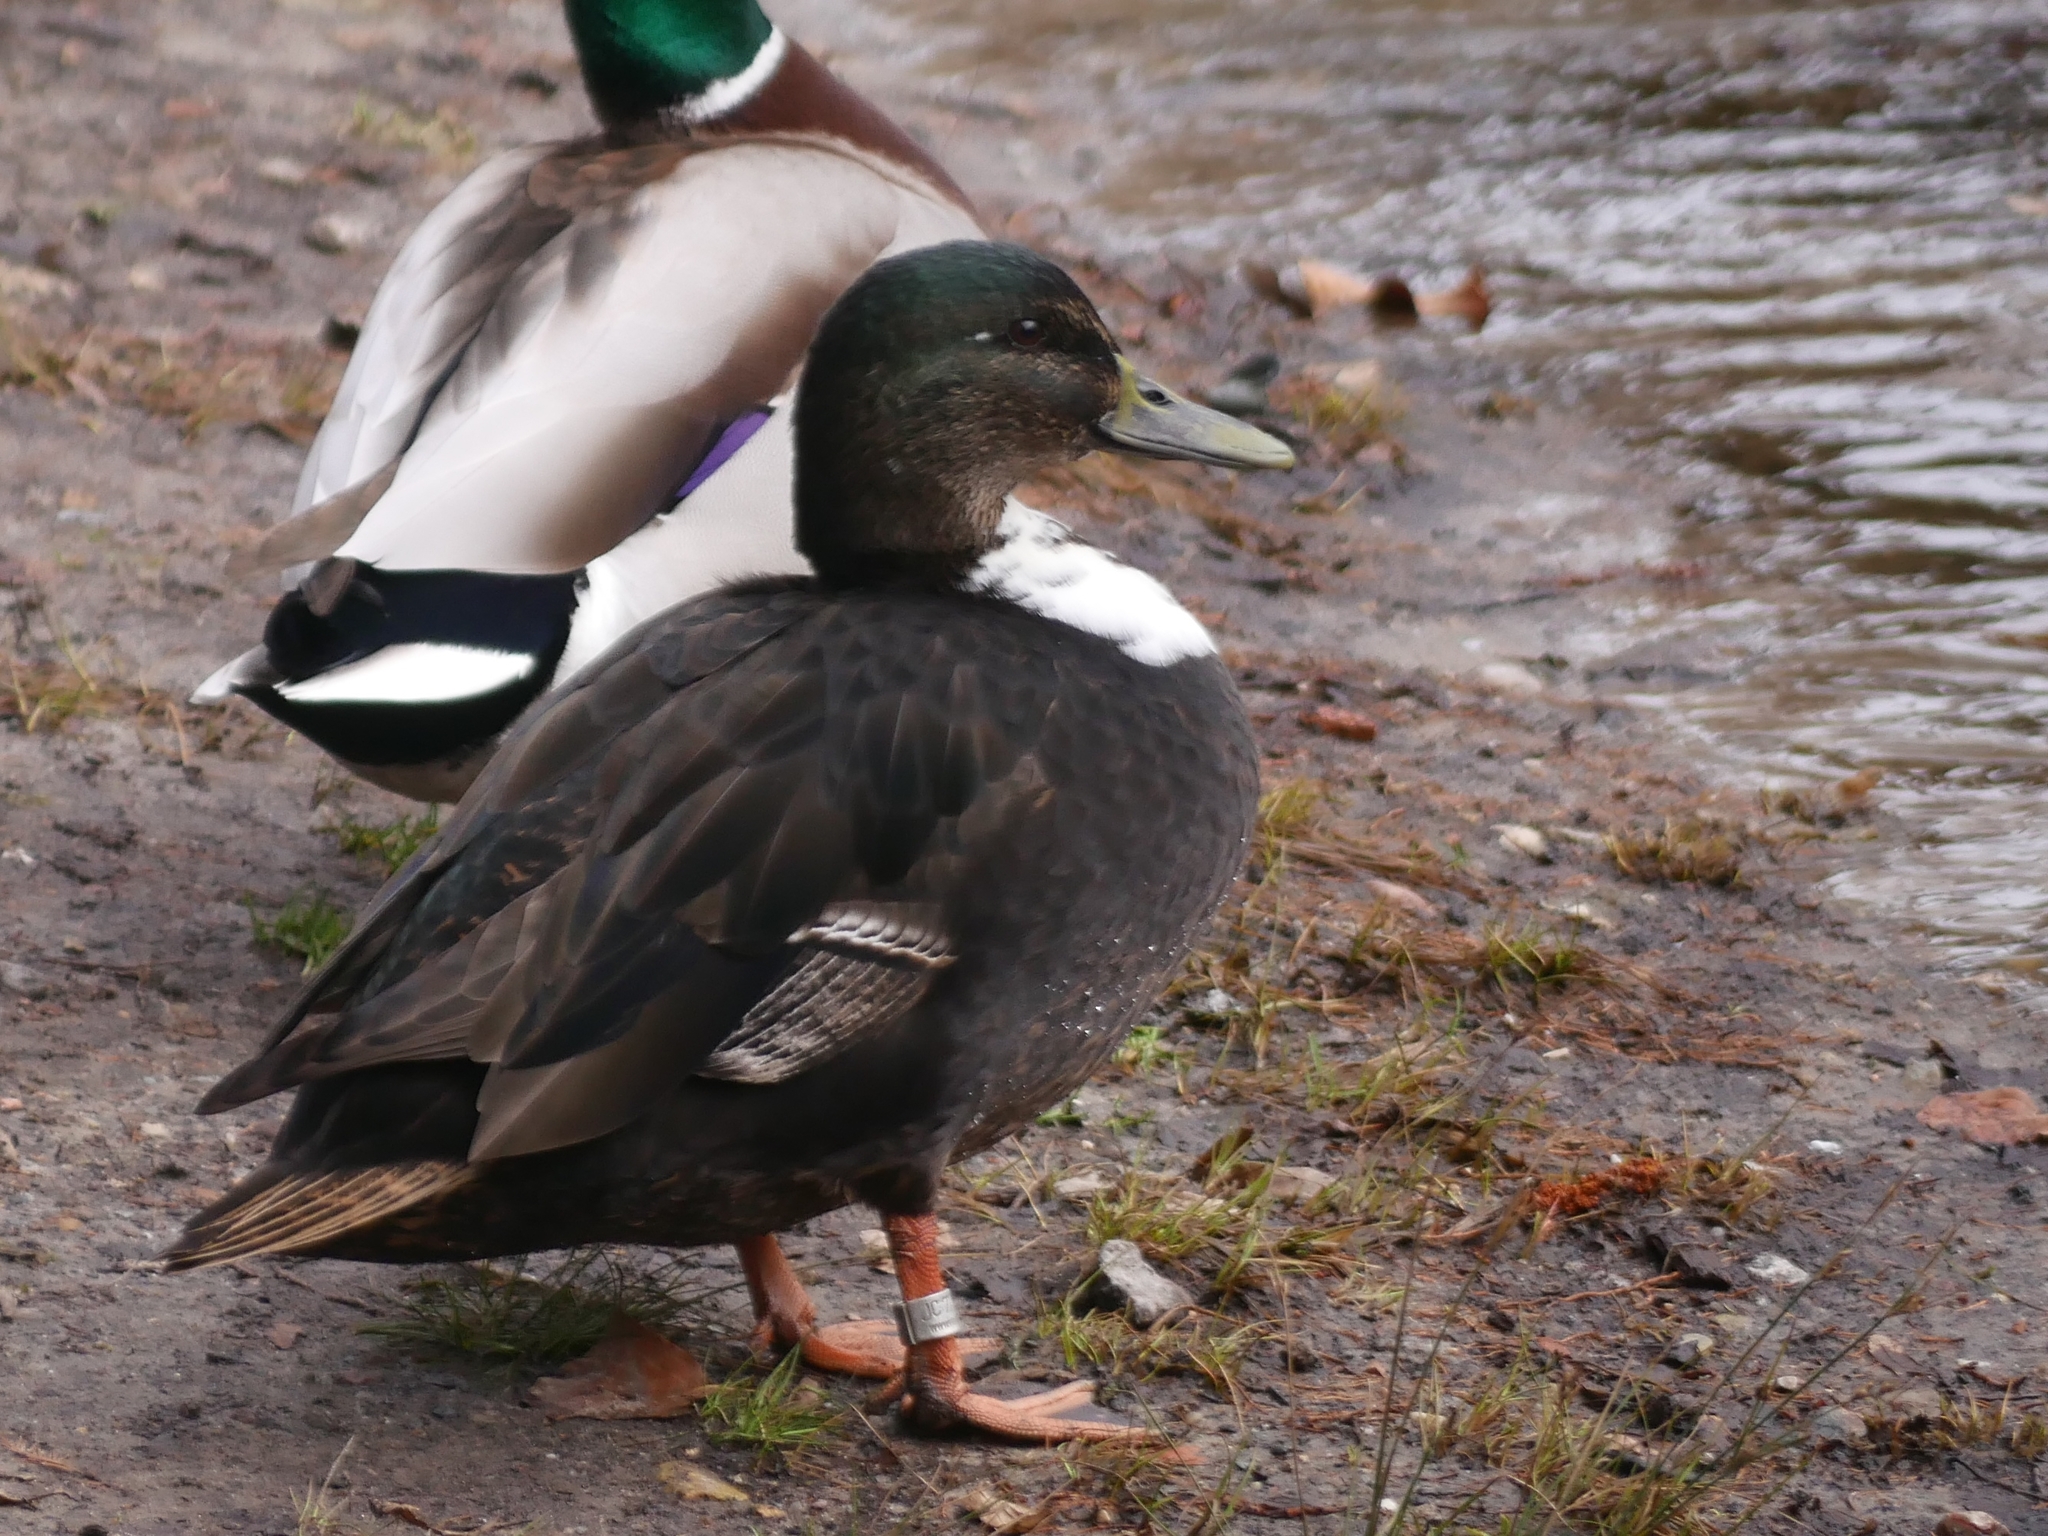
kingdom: Animalia
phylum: Chordata
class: Aves
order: Anseriformes
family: Anatidae
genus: Anas
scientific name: Anas platyrhynchos
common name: Mallard
